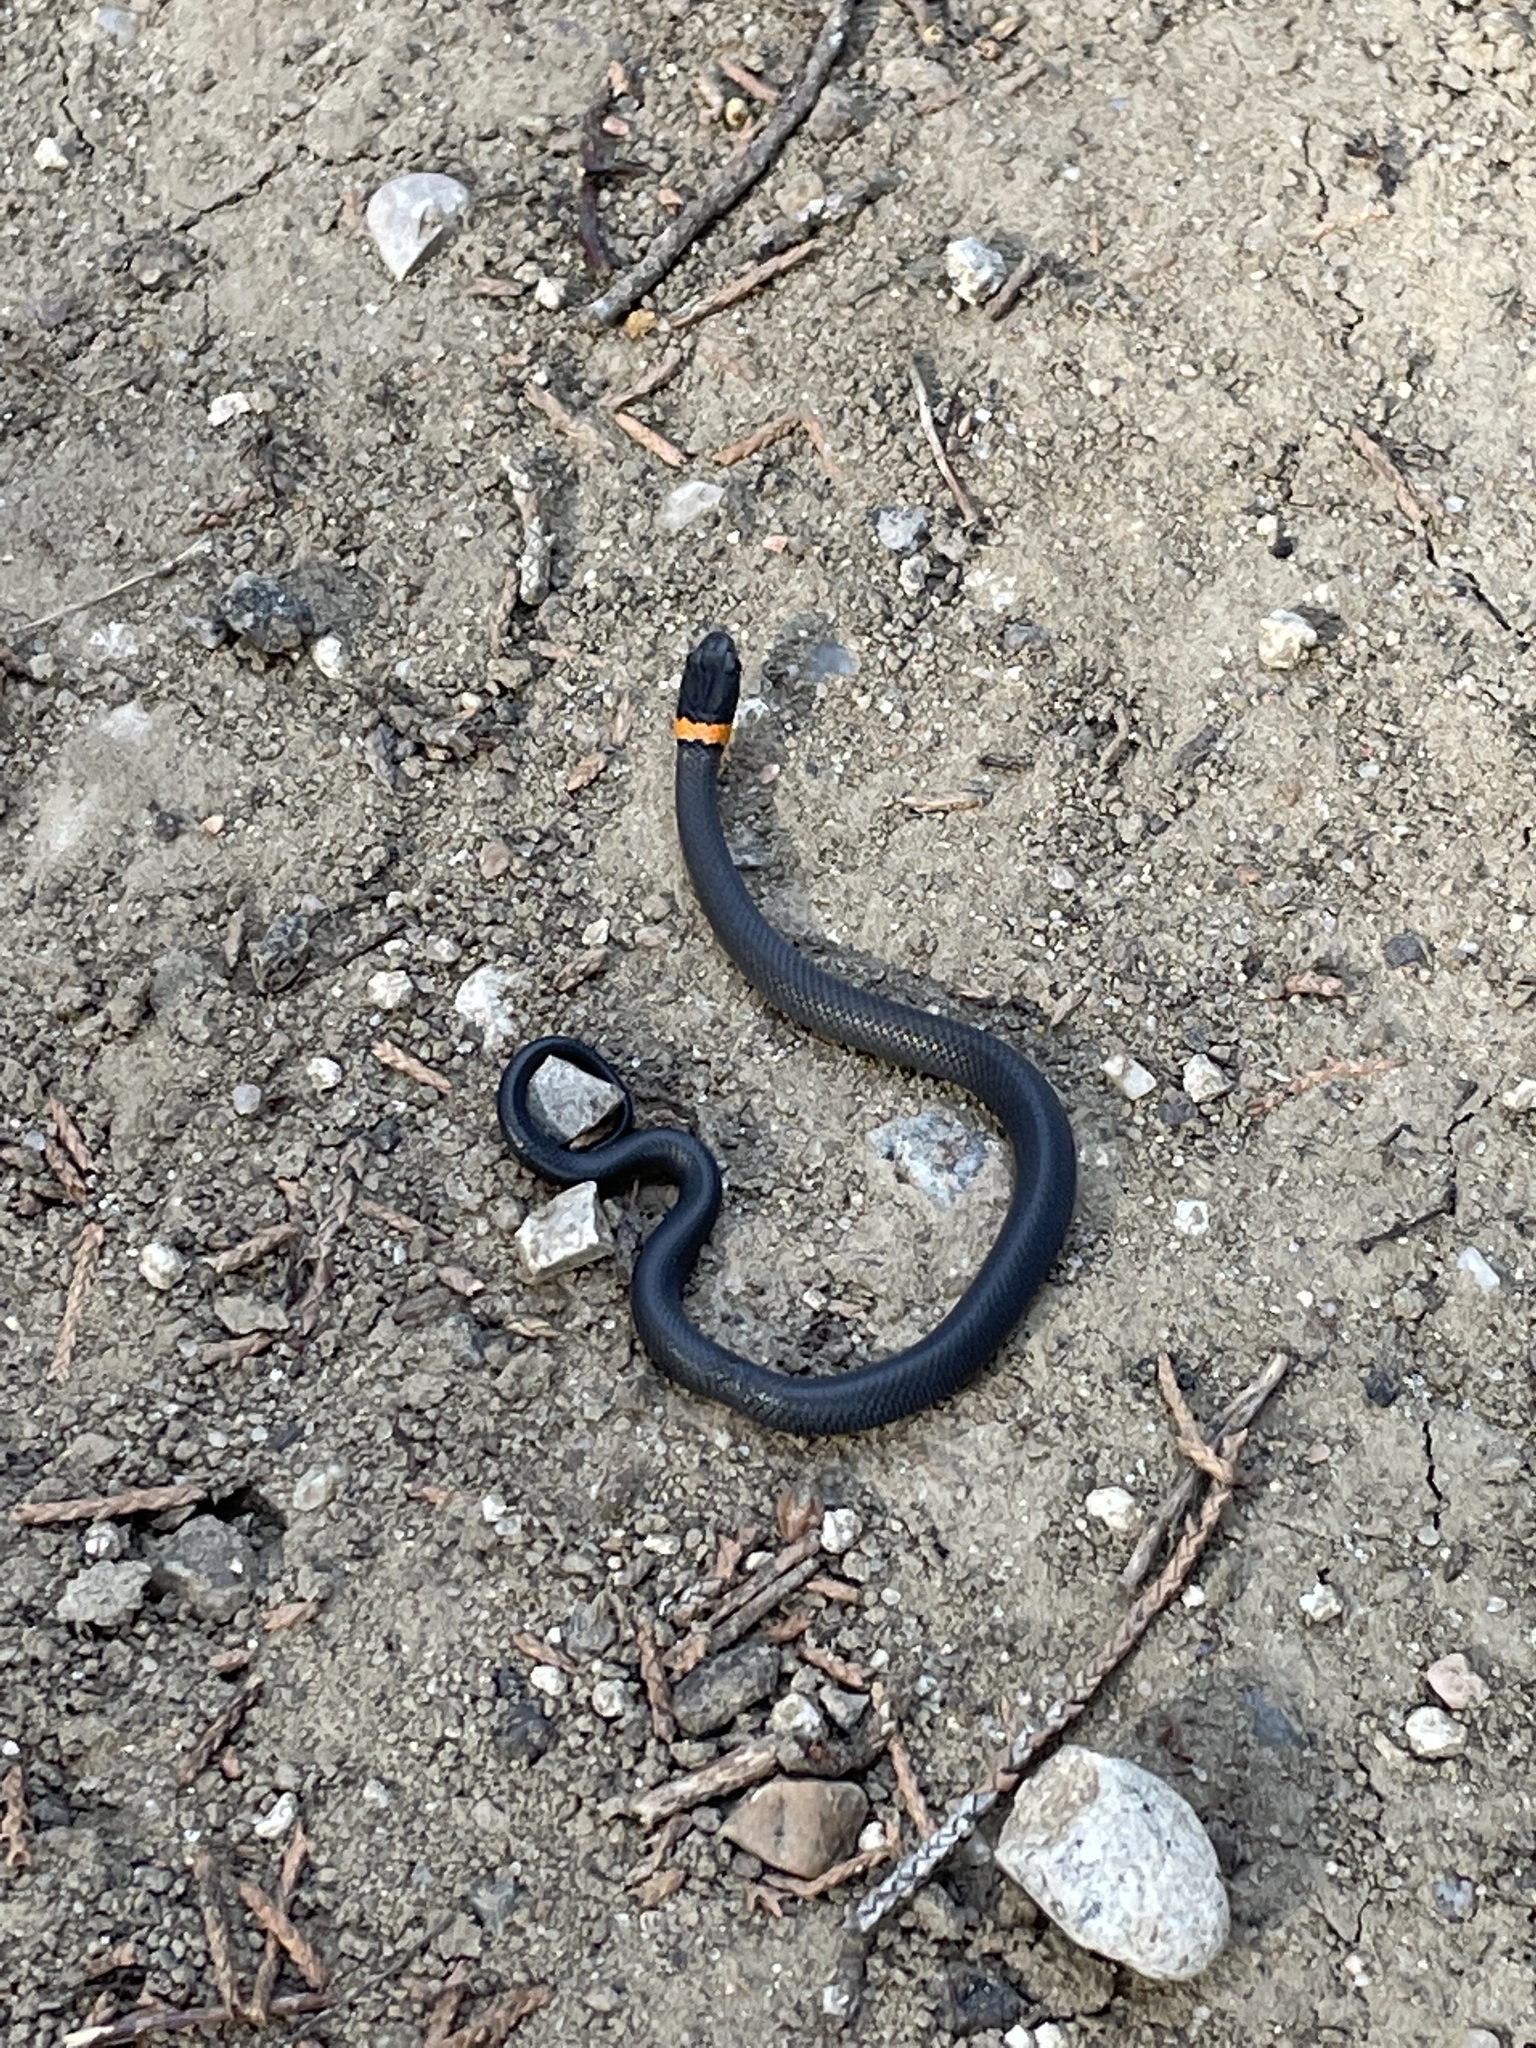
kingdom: Animalia
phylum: Chordata
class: Squamata
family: Colubridae
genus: Diadophis
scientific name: Diadophis punctatus
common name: Ringneck snake
